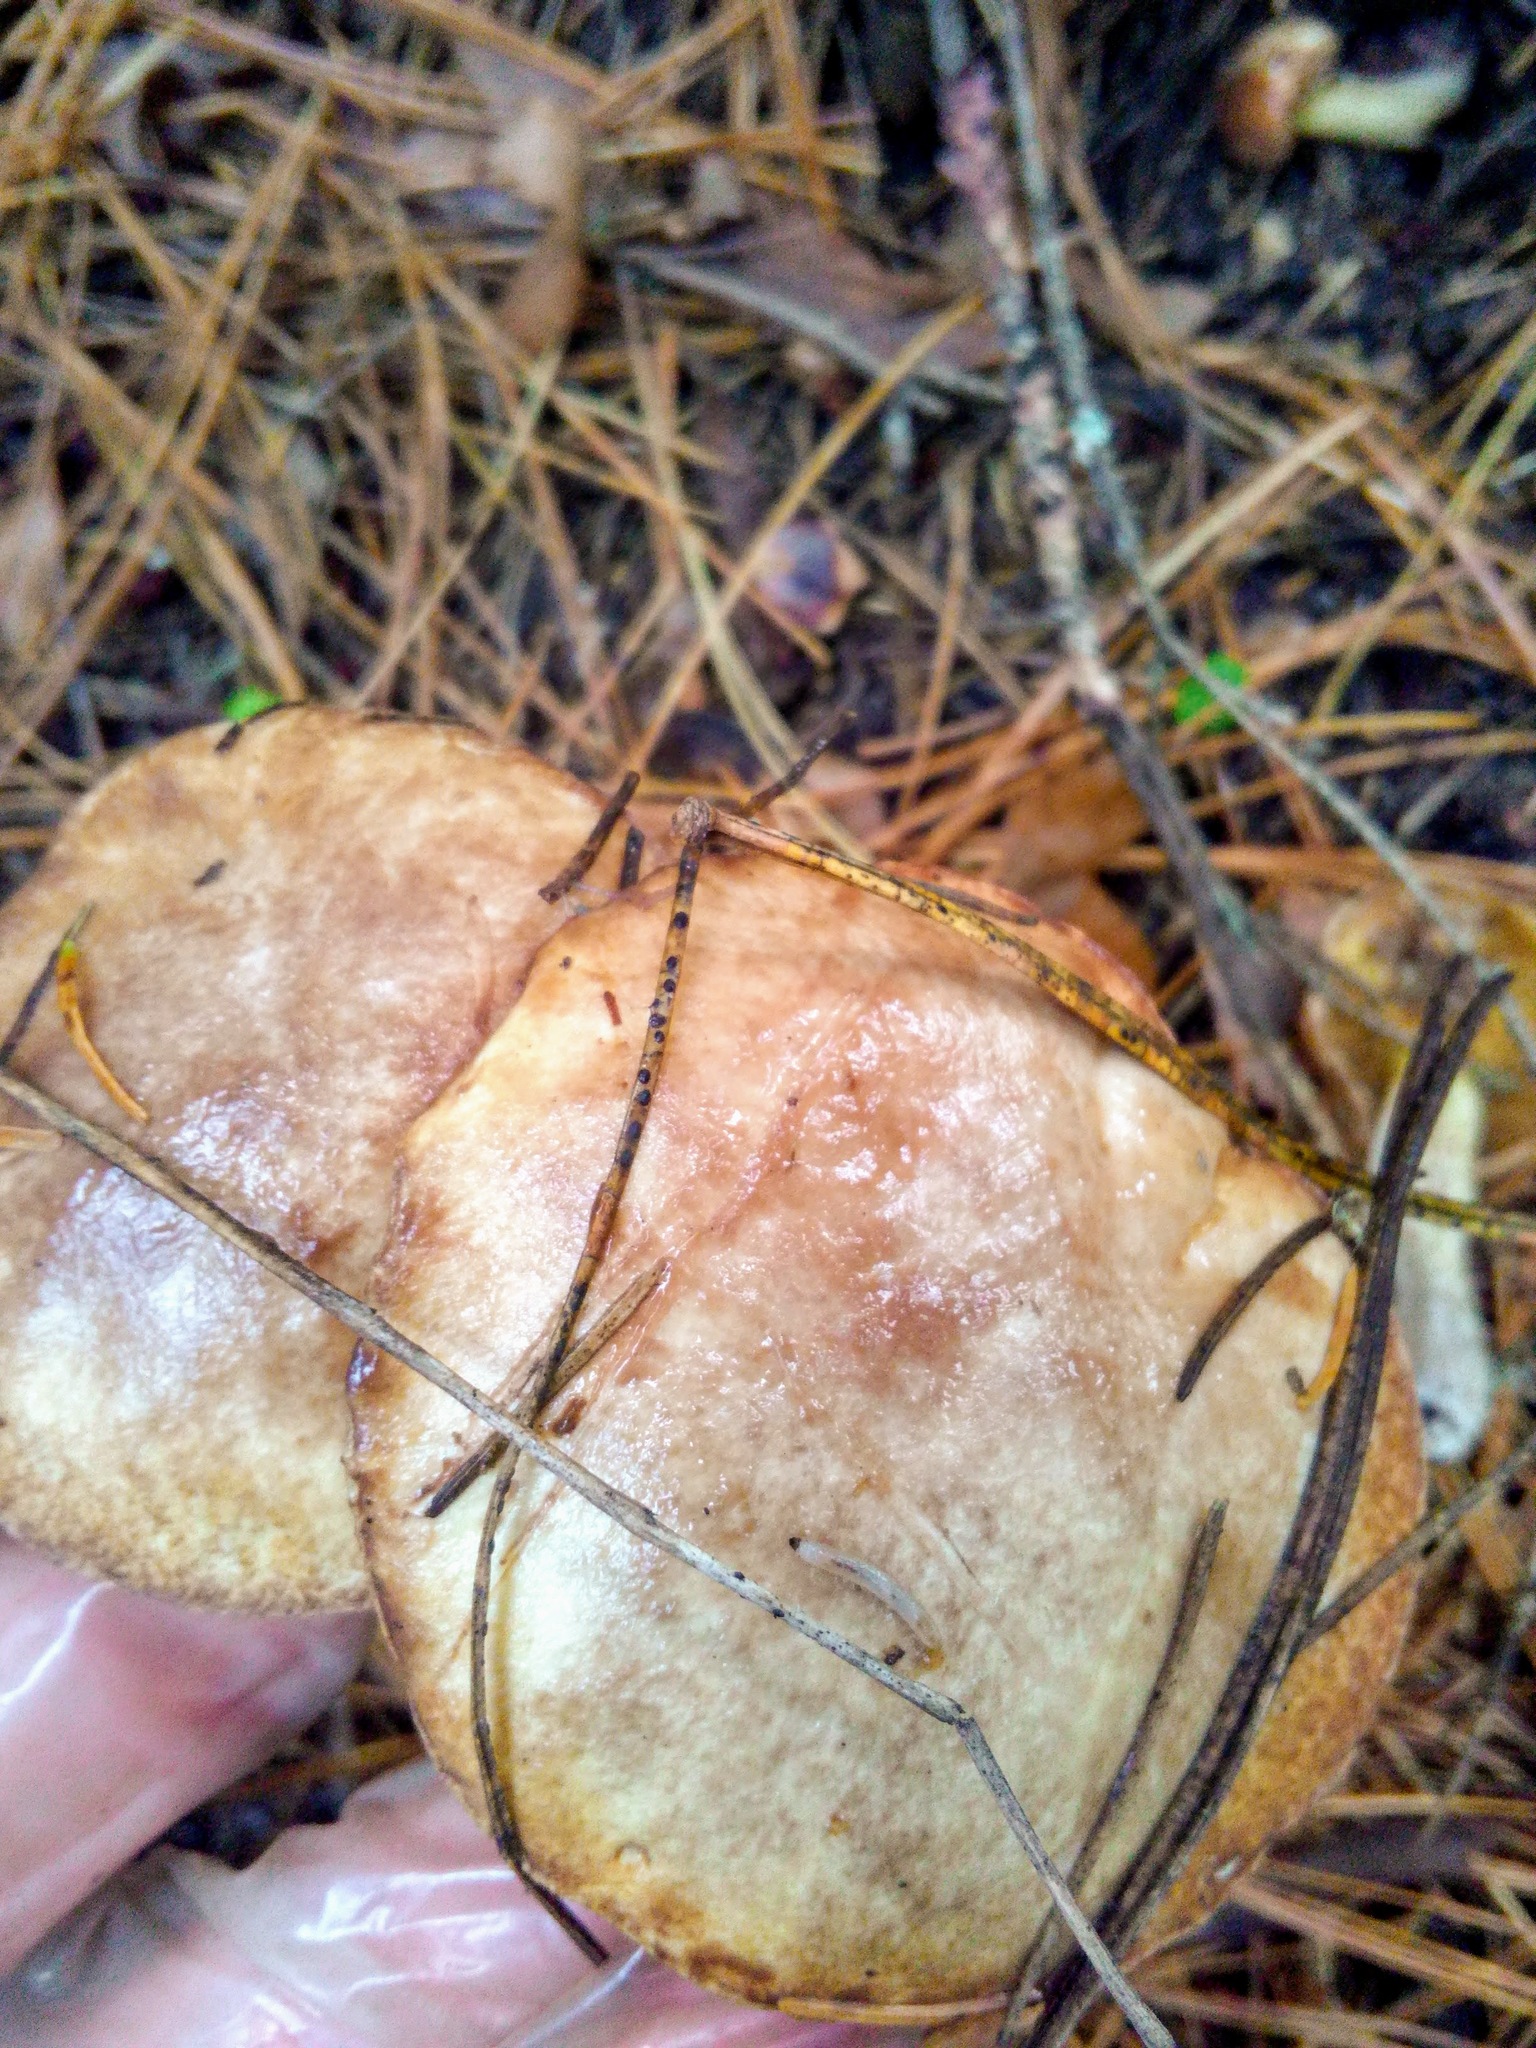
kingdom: Fungi
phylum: Basidiomycota
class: Agaricomycetes
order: Boletales
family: Suillaceae
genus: Suillus
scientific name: Suillus placidus
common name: Slippery white bolete
